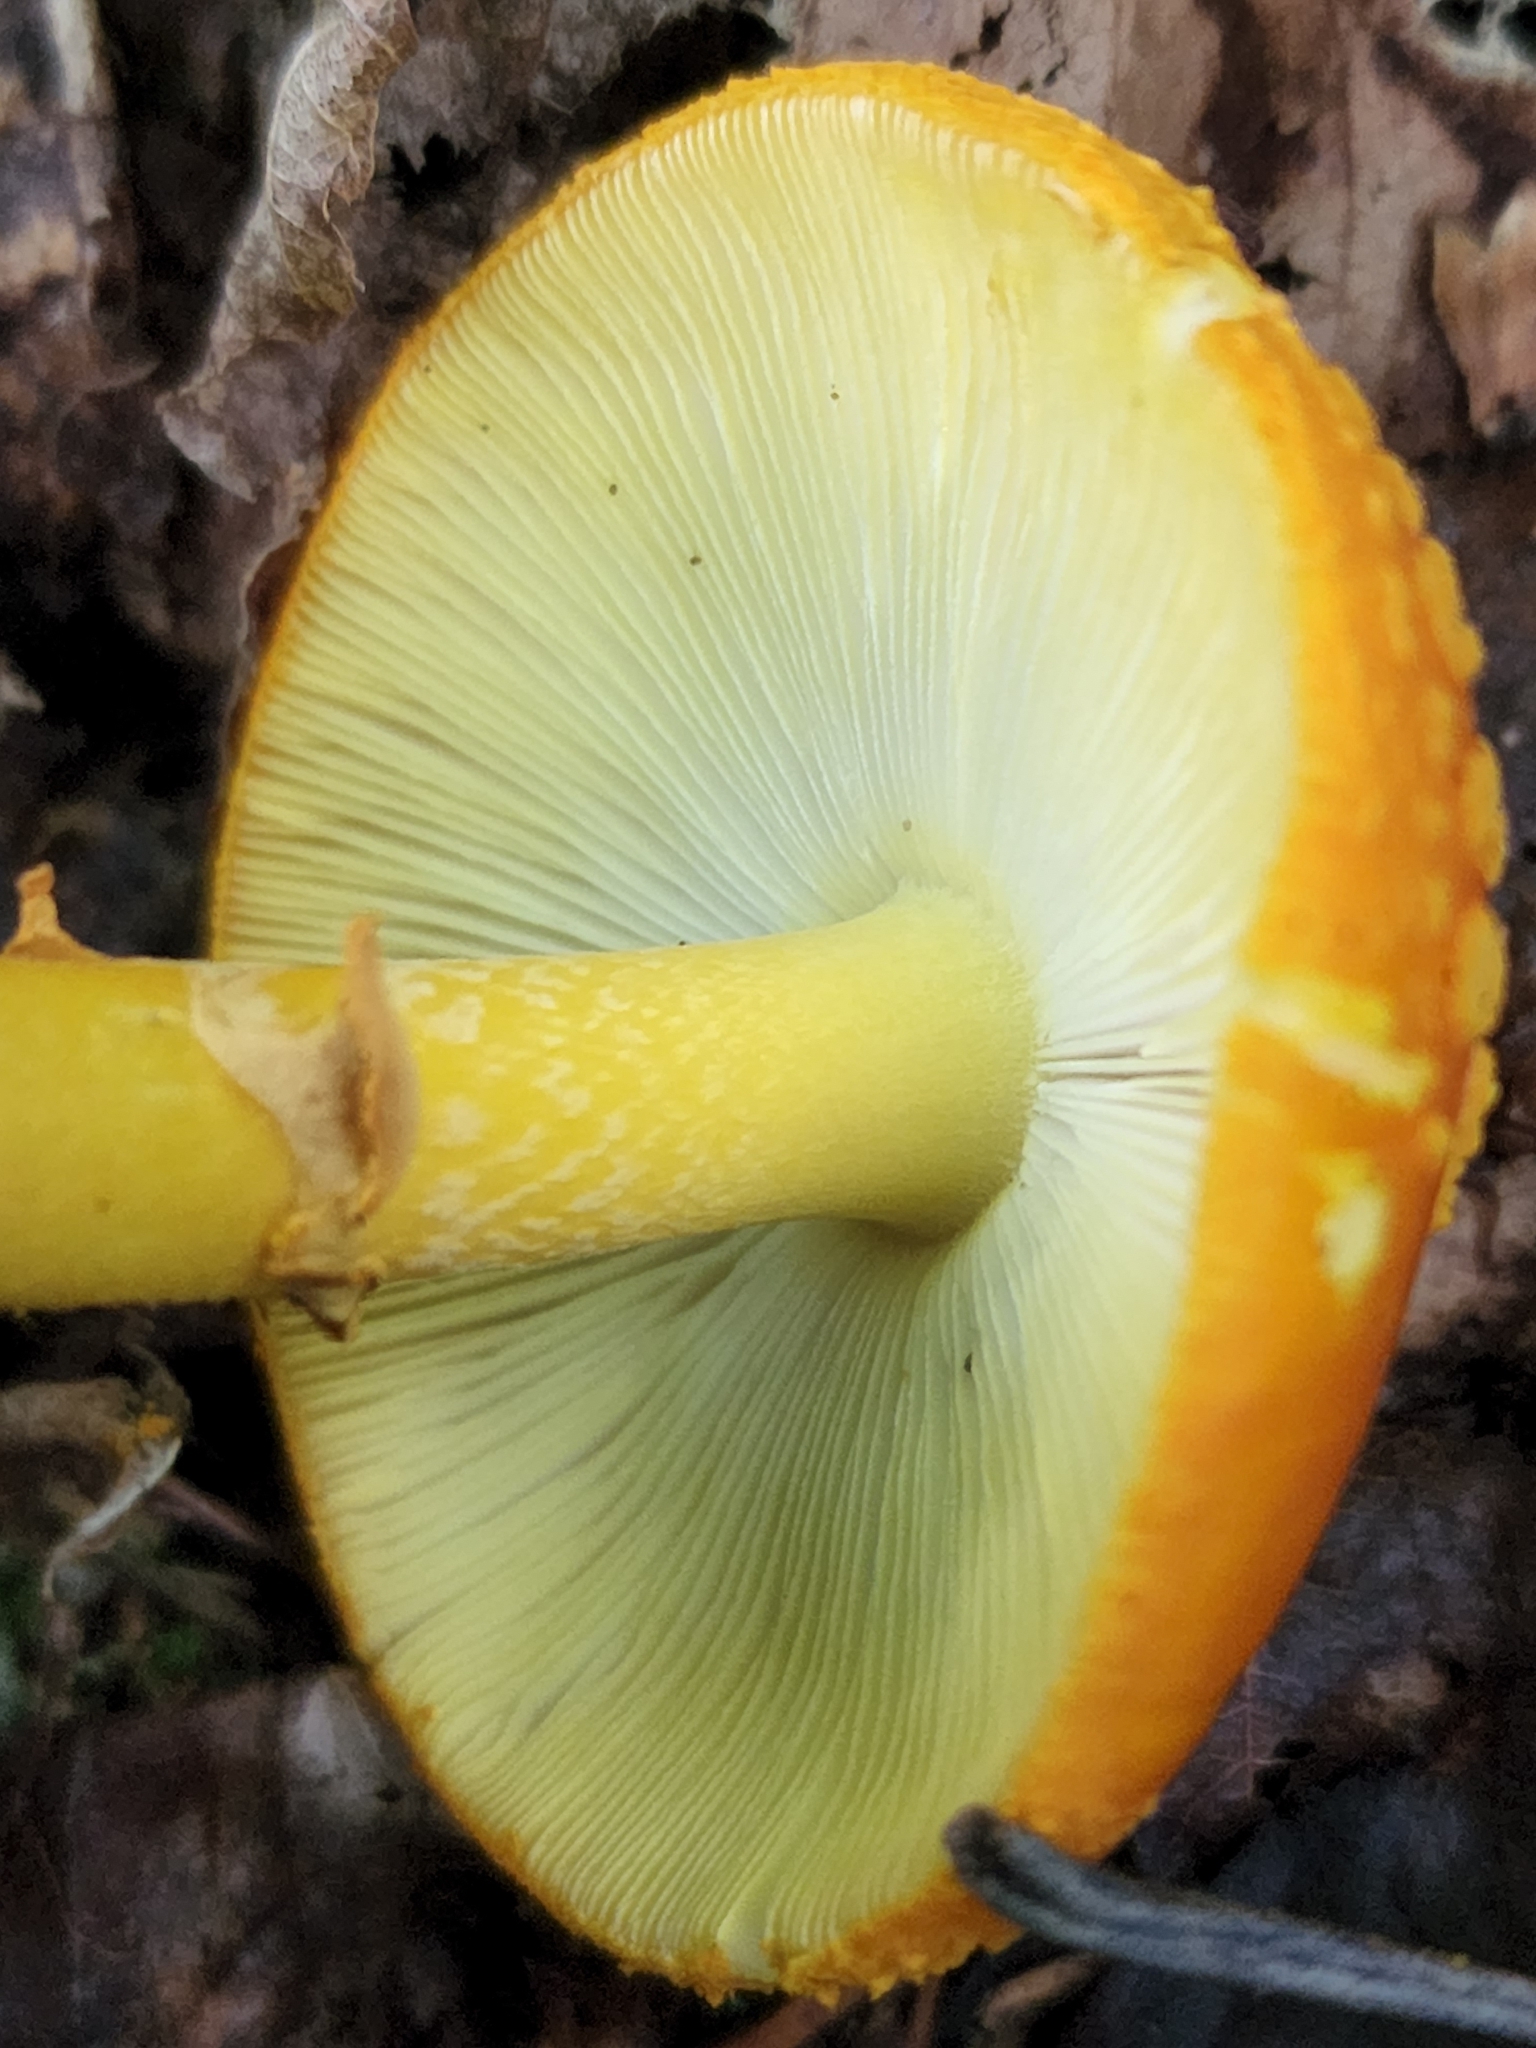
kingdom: Fungi
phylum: Basidiomycota
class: Agaricomycetes
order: Agaricales
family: Amanitaceae
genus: Amanita
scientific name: Amanita flavoconia
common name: Yellow patches
